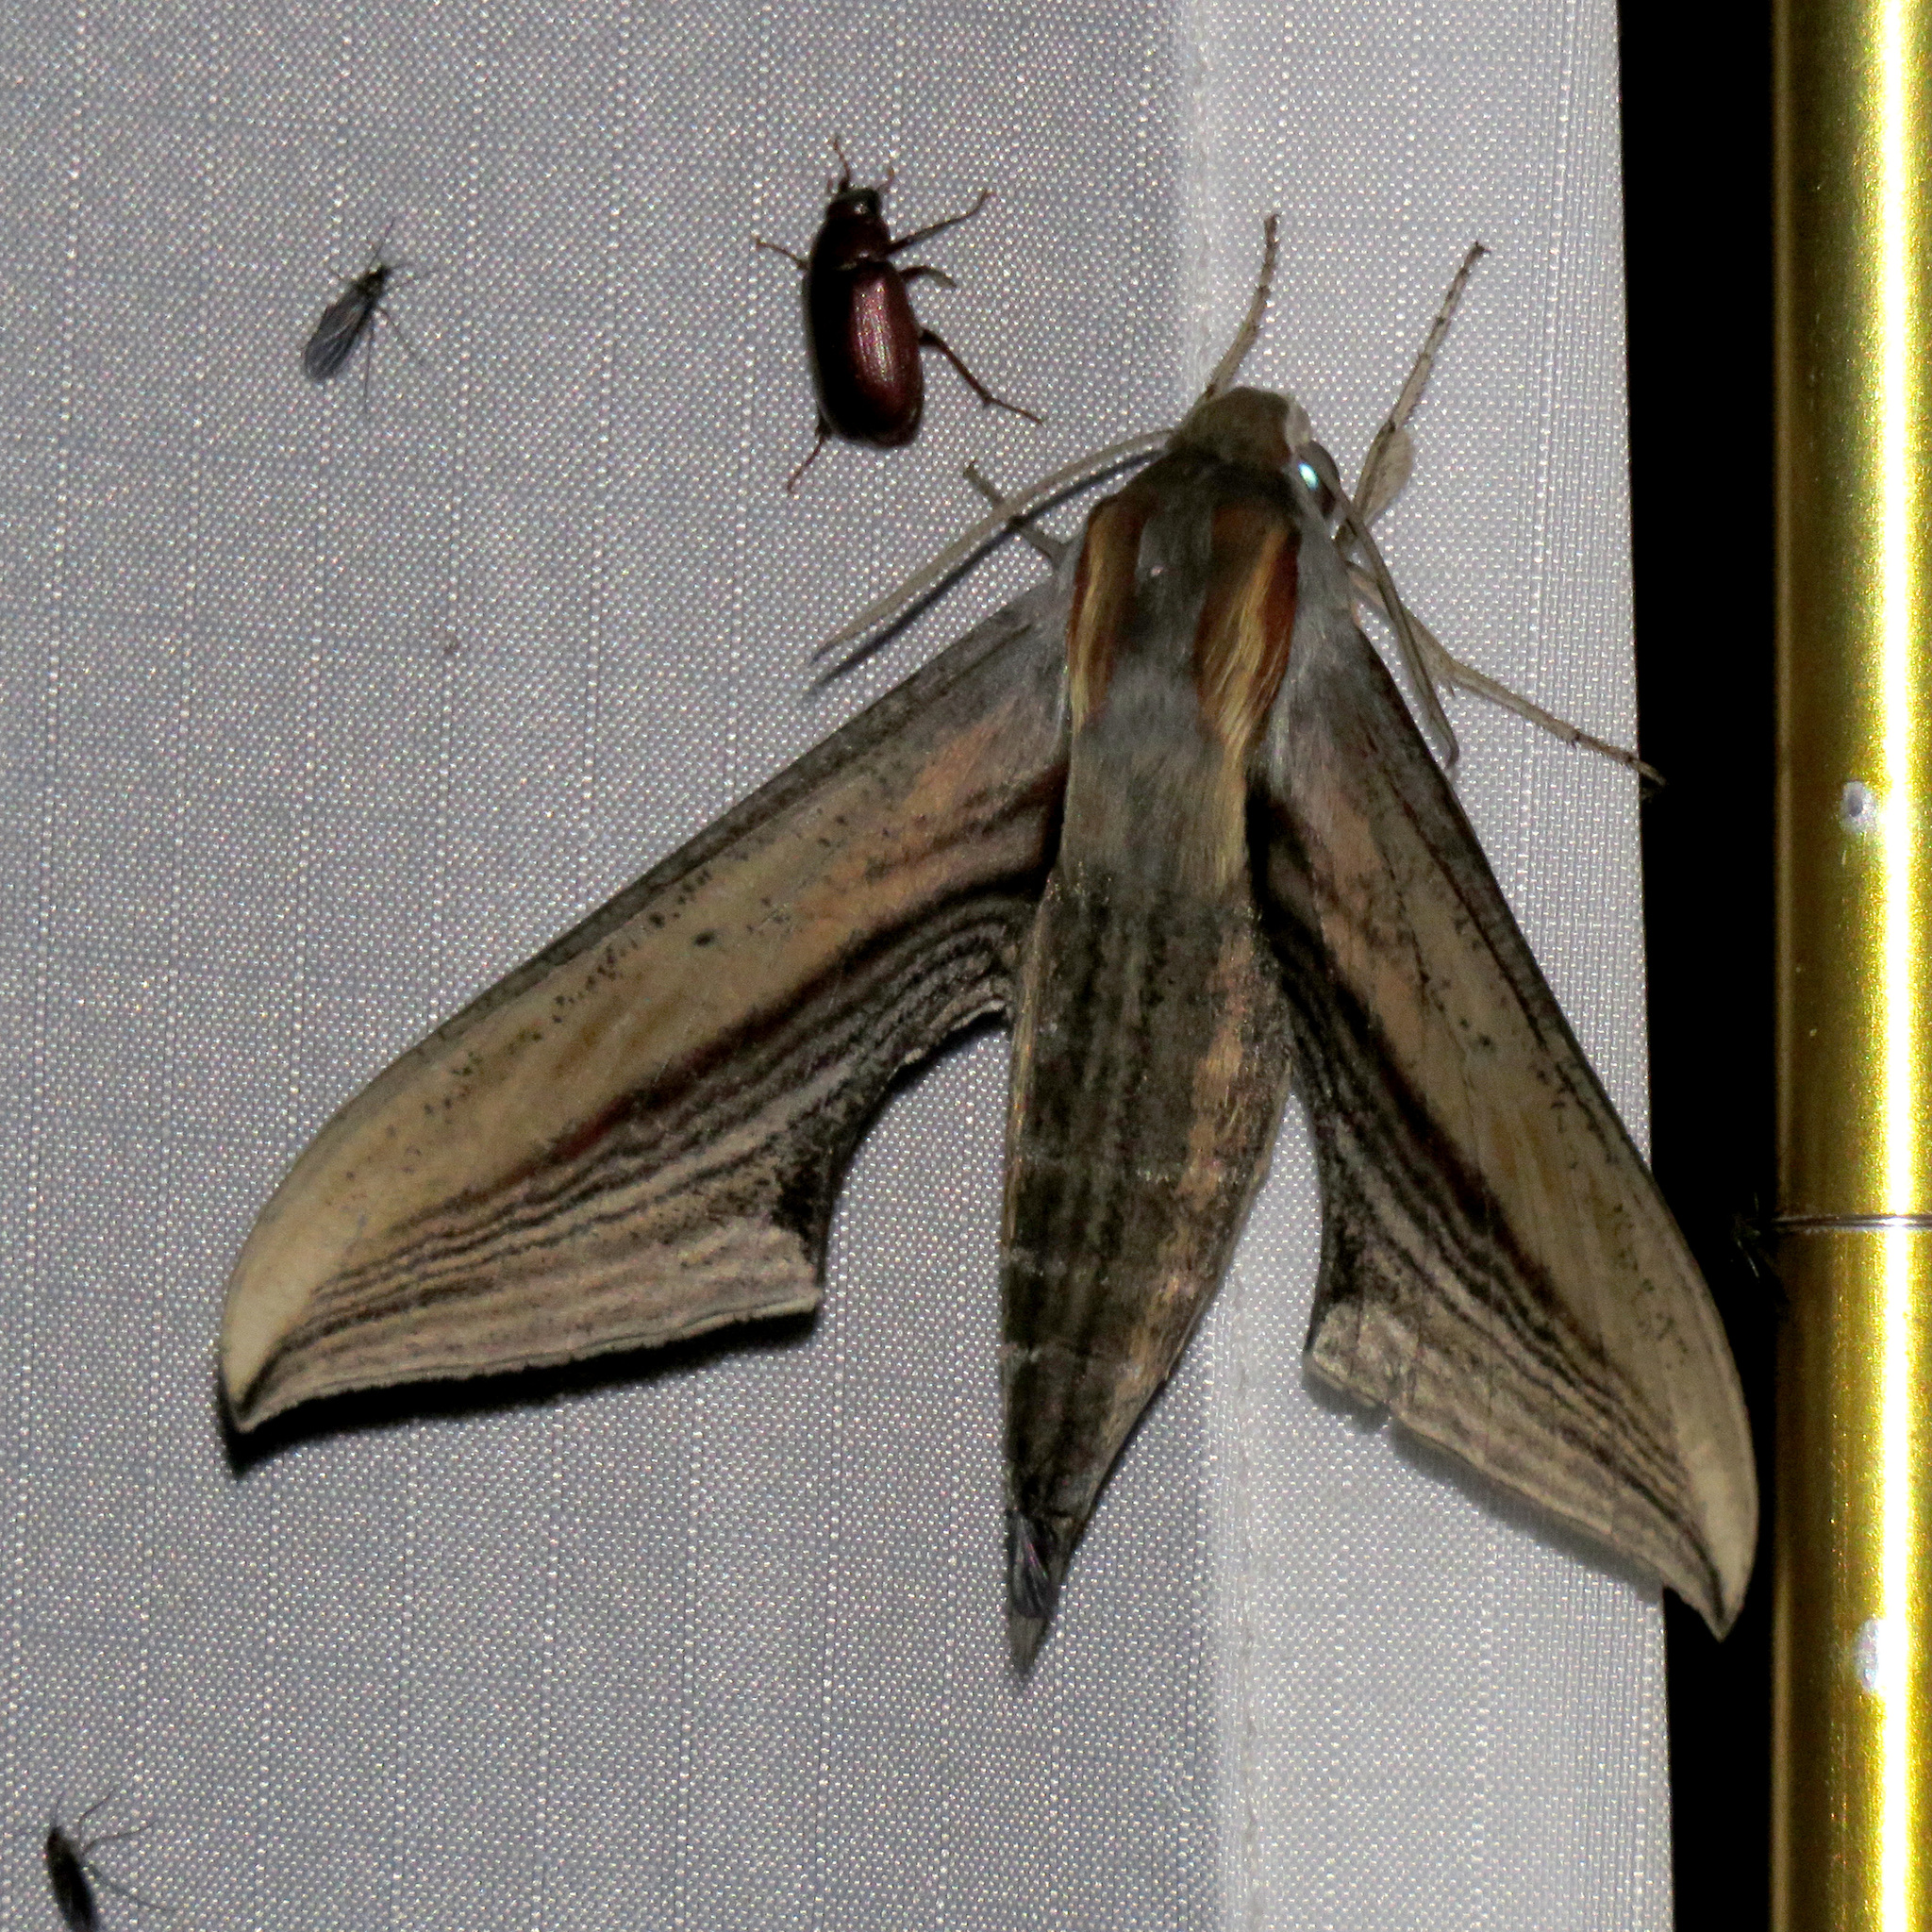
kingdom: Animalia
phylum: Arthropoda
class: Insecta
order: Lepidoptera
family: Sphingidae
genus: Xylophanes
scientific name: Xylophanes falco
